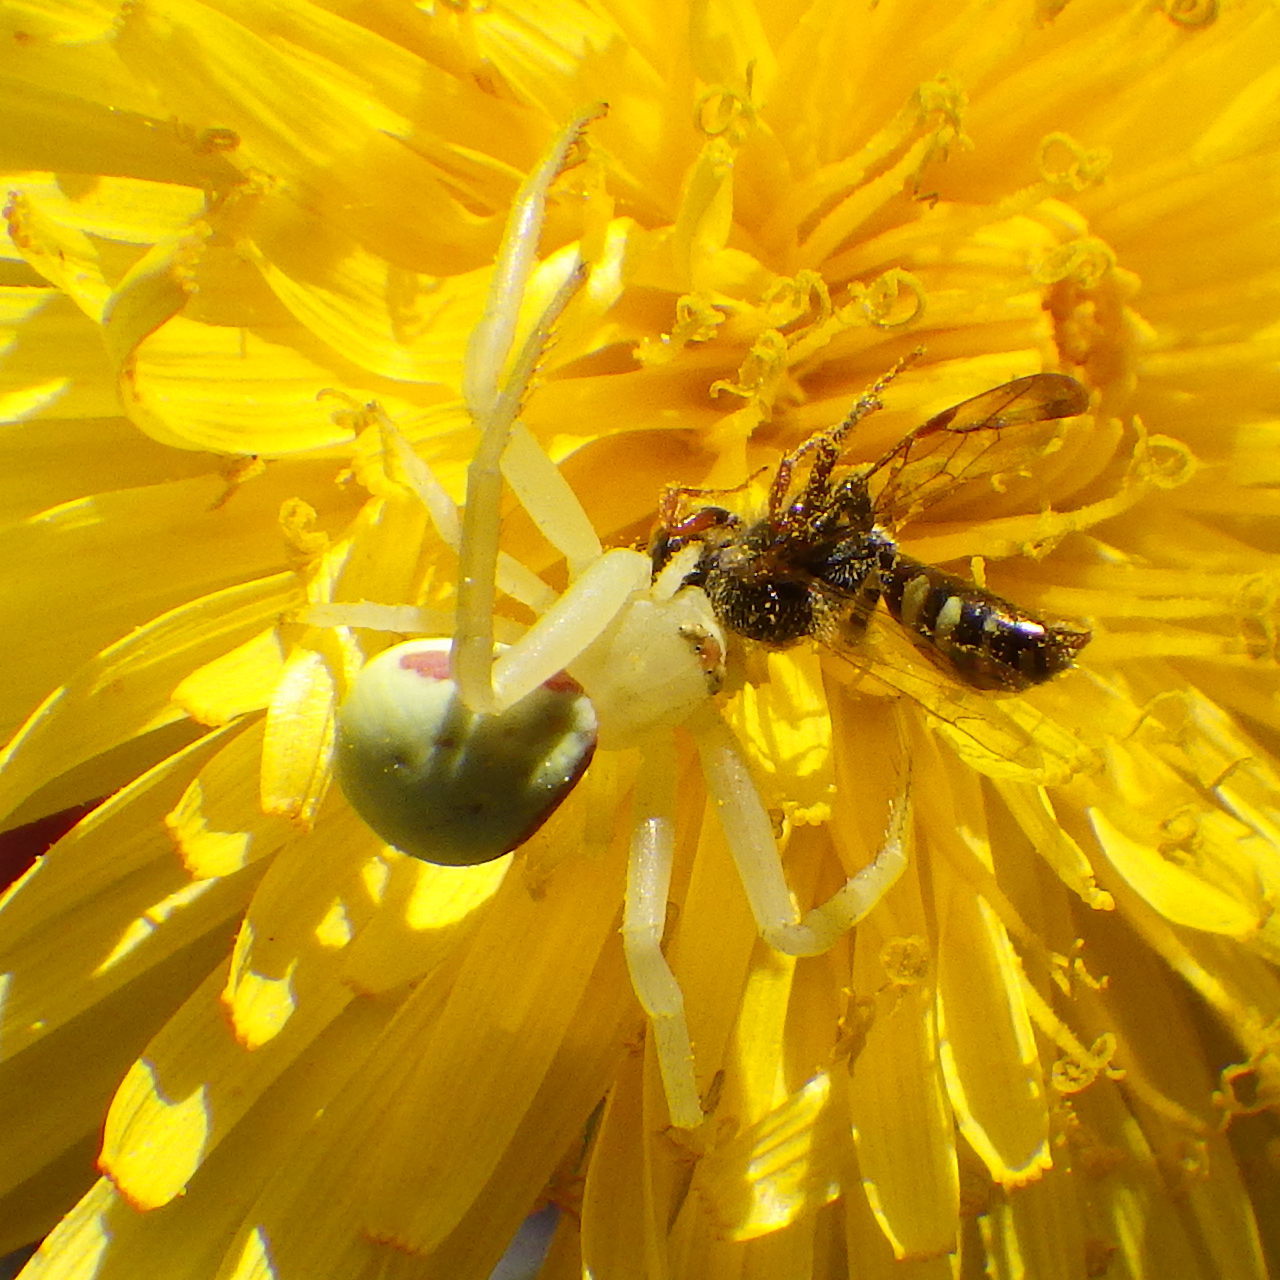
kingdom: Animalia
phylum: Arthropoda
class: Arachnida
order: Araneae
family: Thomisidae
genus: Misumena
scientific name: Misumena vatia
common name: Goldenrod crab spider
